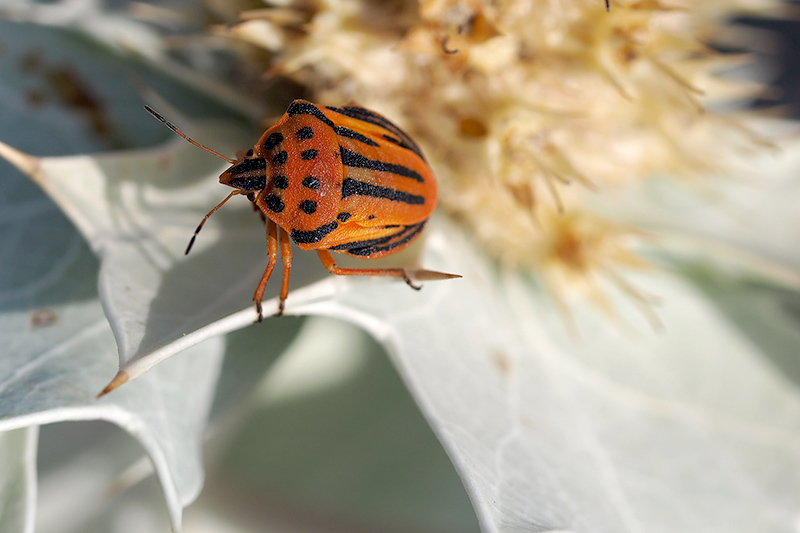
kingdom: Animalia
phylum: Arthropoda
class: Insecta
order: Hemiptera
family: Pentatomidae
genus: Graphosoma
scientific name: Graphosoma semipunctatum
